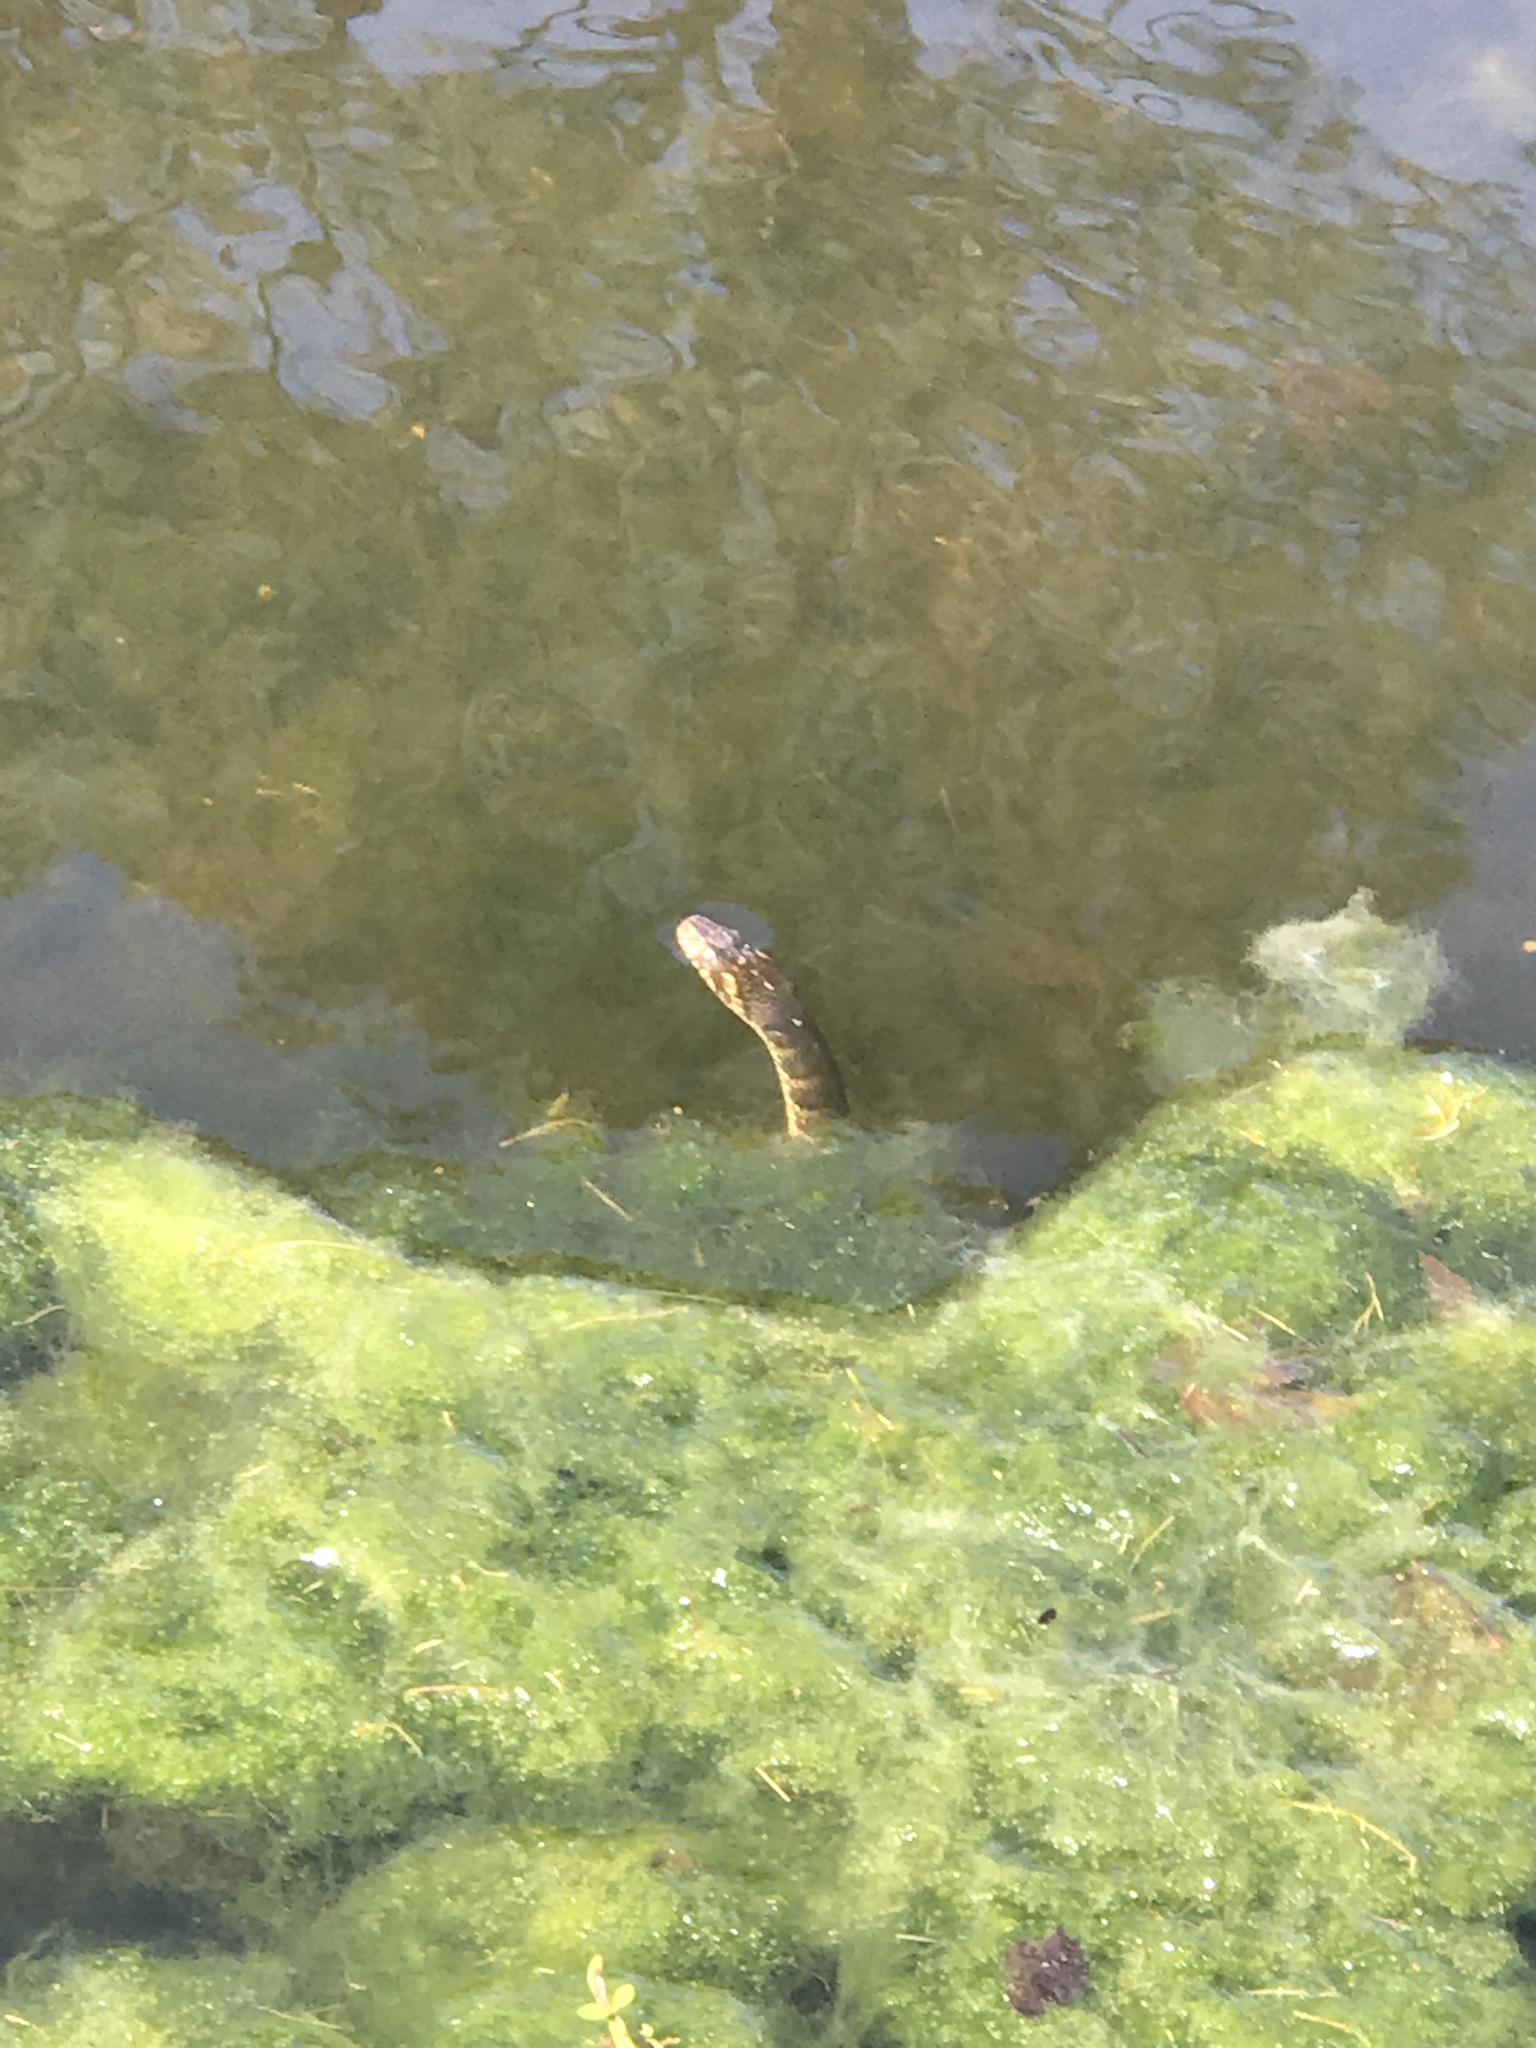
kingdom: Animalia
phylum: Chordata
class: Squamata
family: Colubridae
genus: Nerodia
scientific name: Nerodia fasciata
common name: Southern water snake
